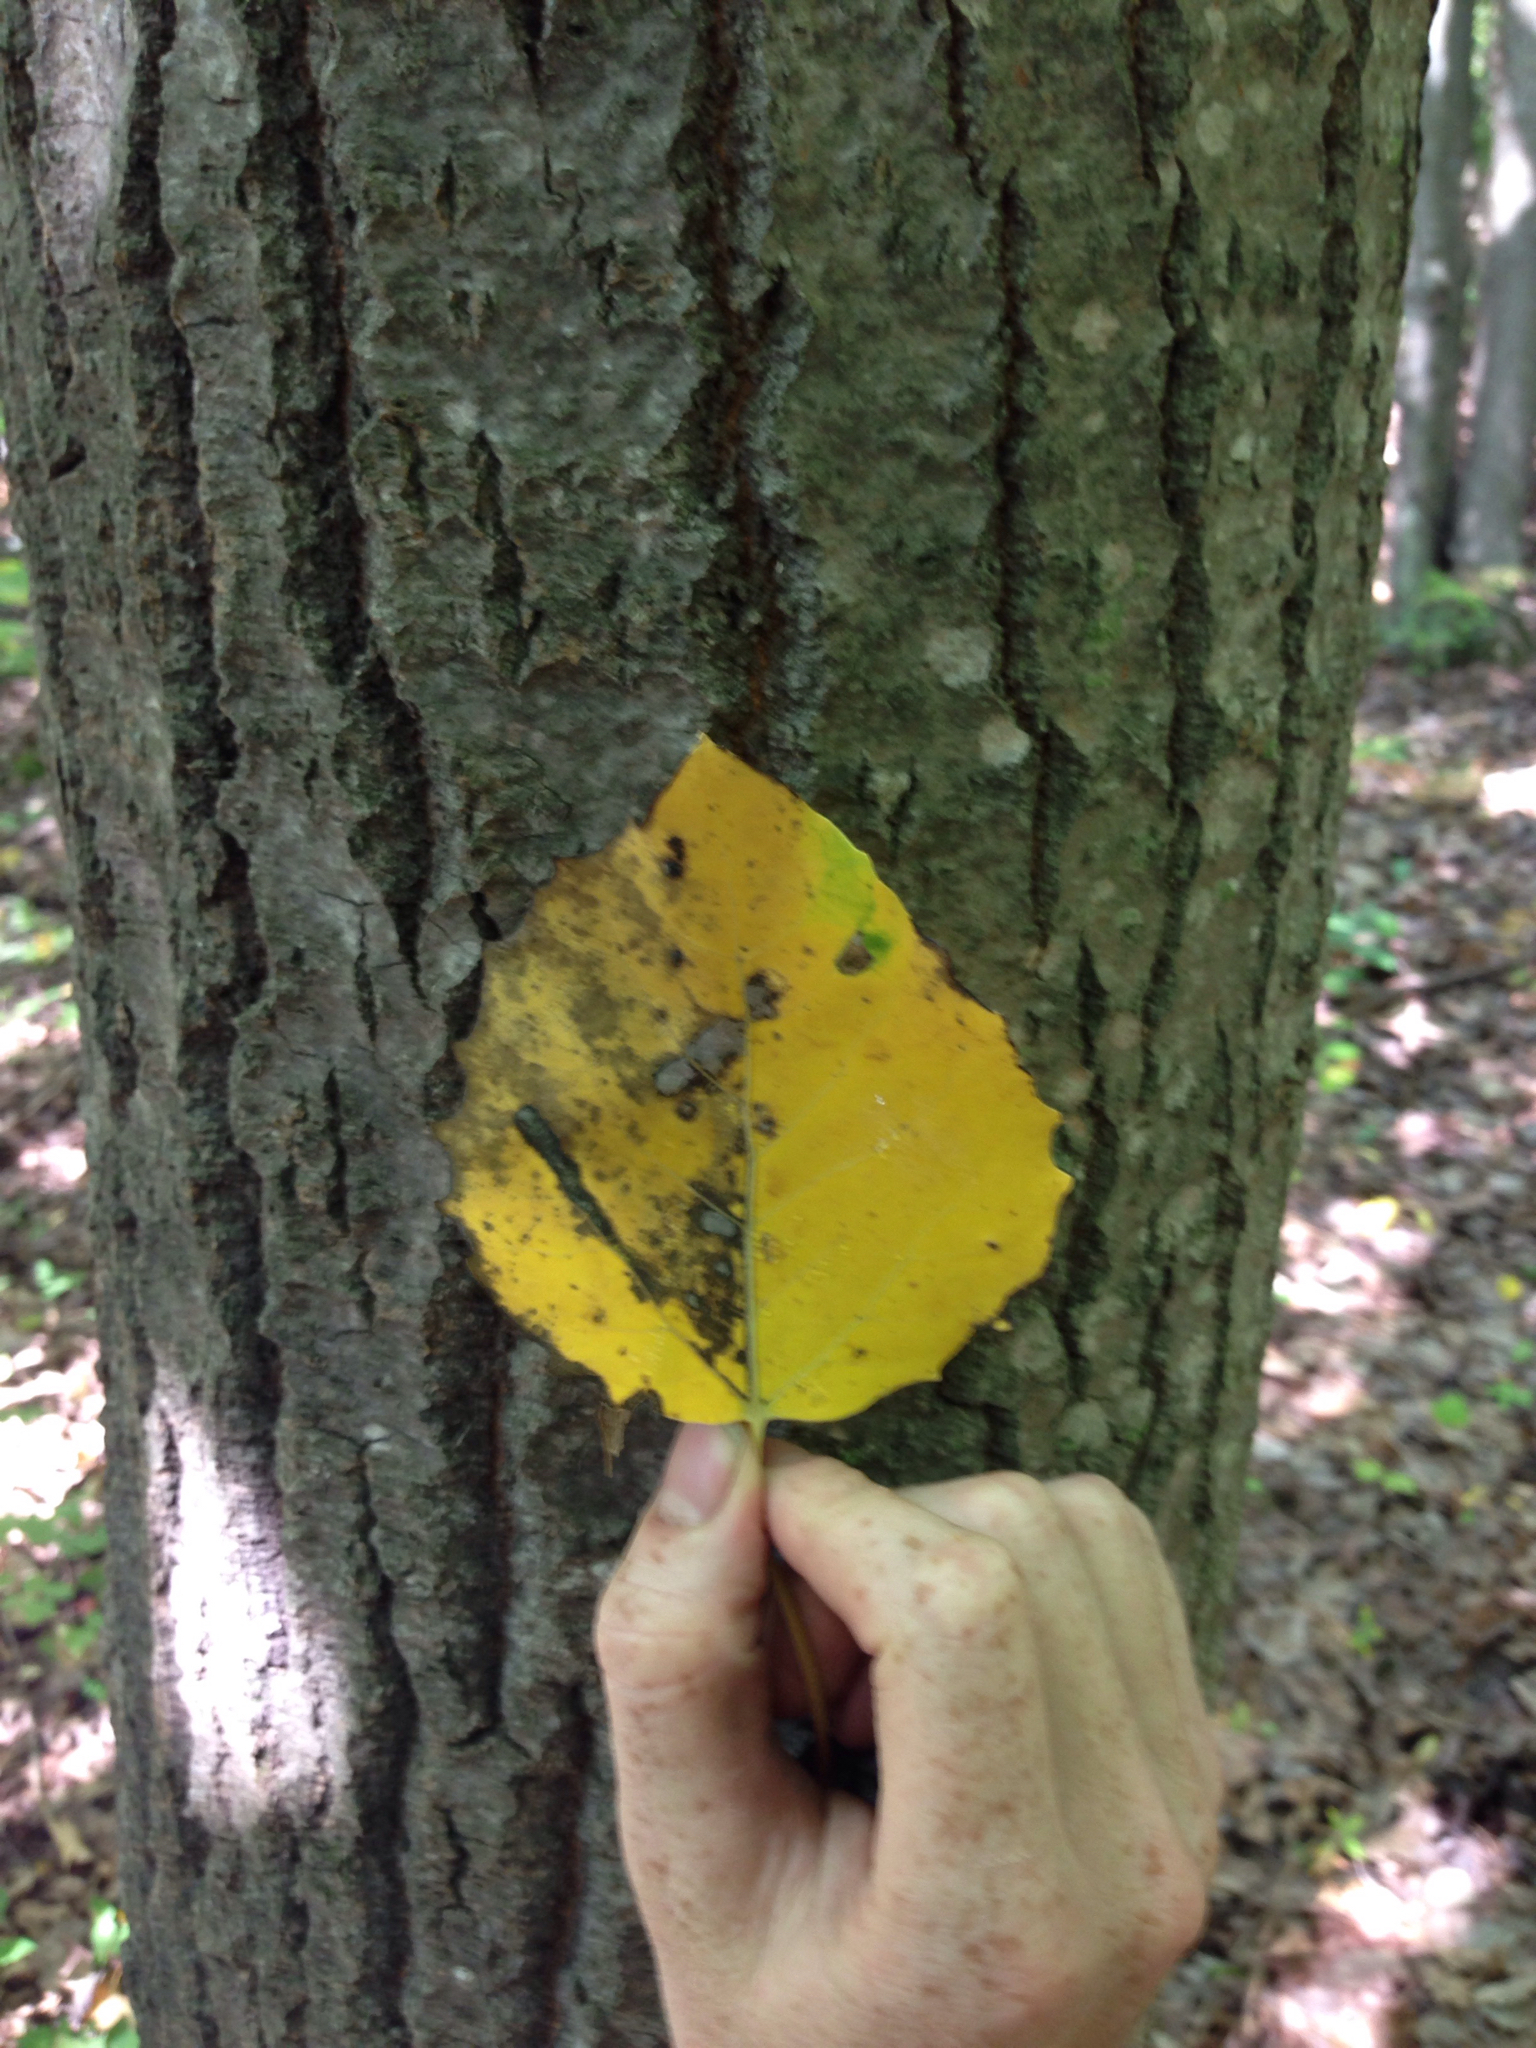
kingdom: Plantae
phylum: Tracheophyta
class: Magnoliopsida
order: Malpighiales
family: Salicaceae
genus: Populus
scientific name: Populus grandidentata
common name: Bigtooth aspen
